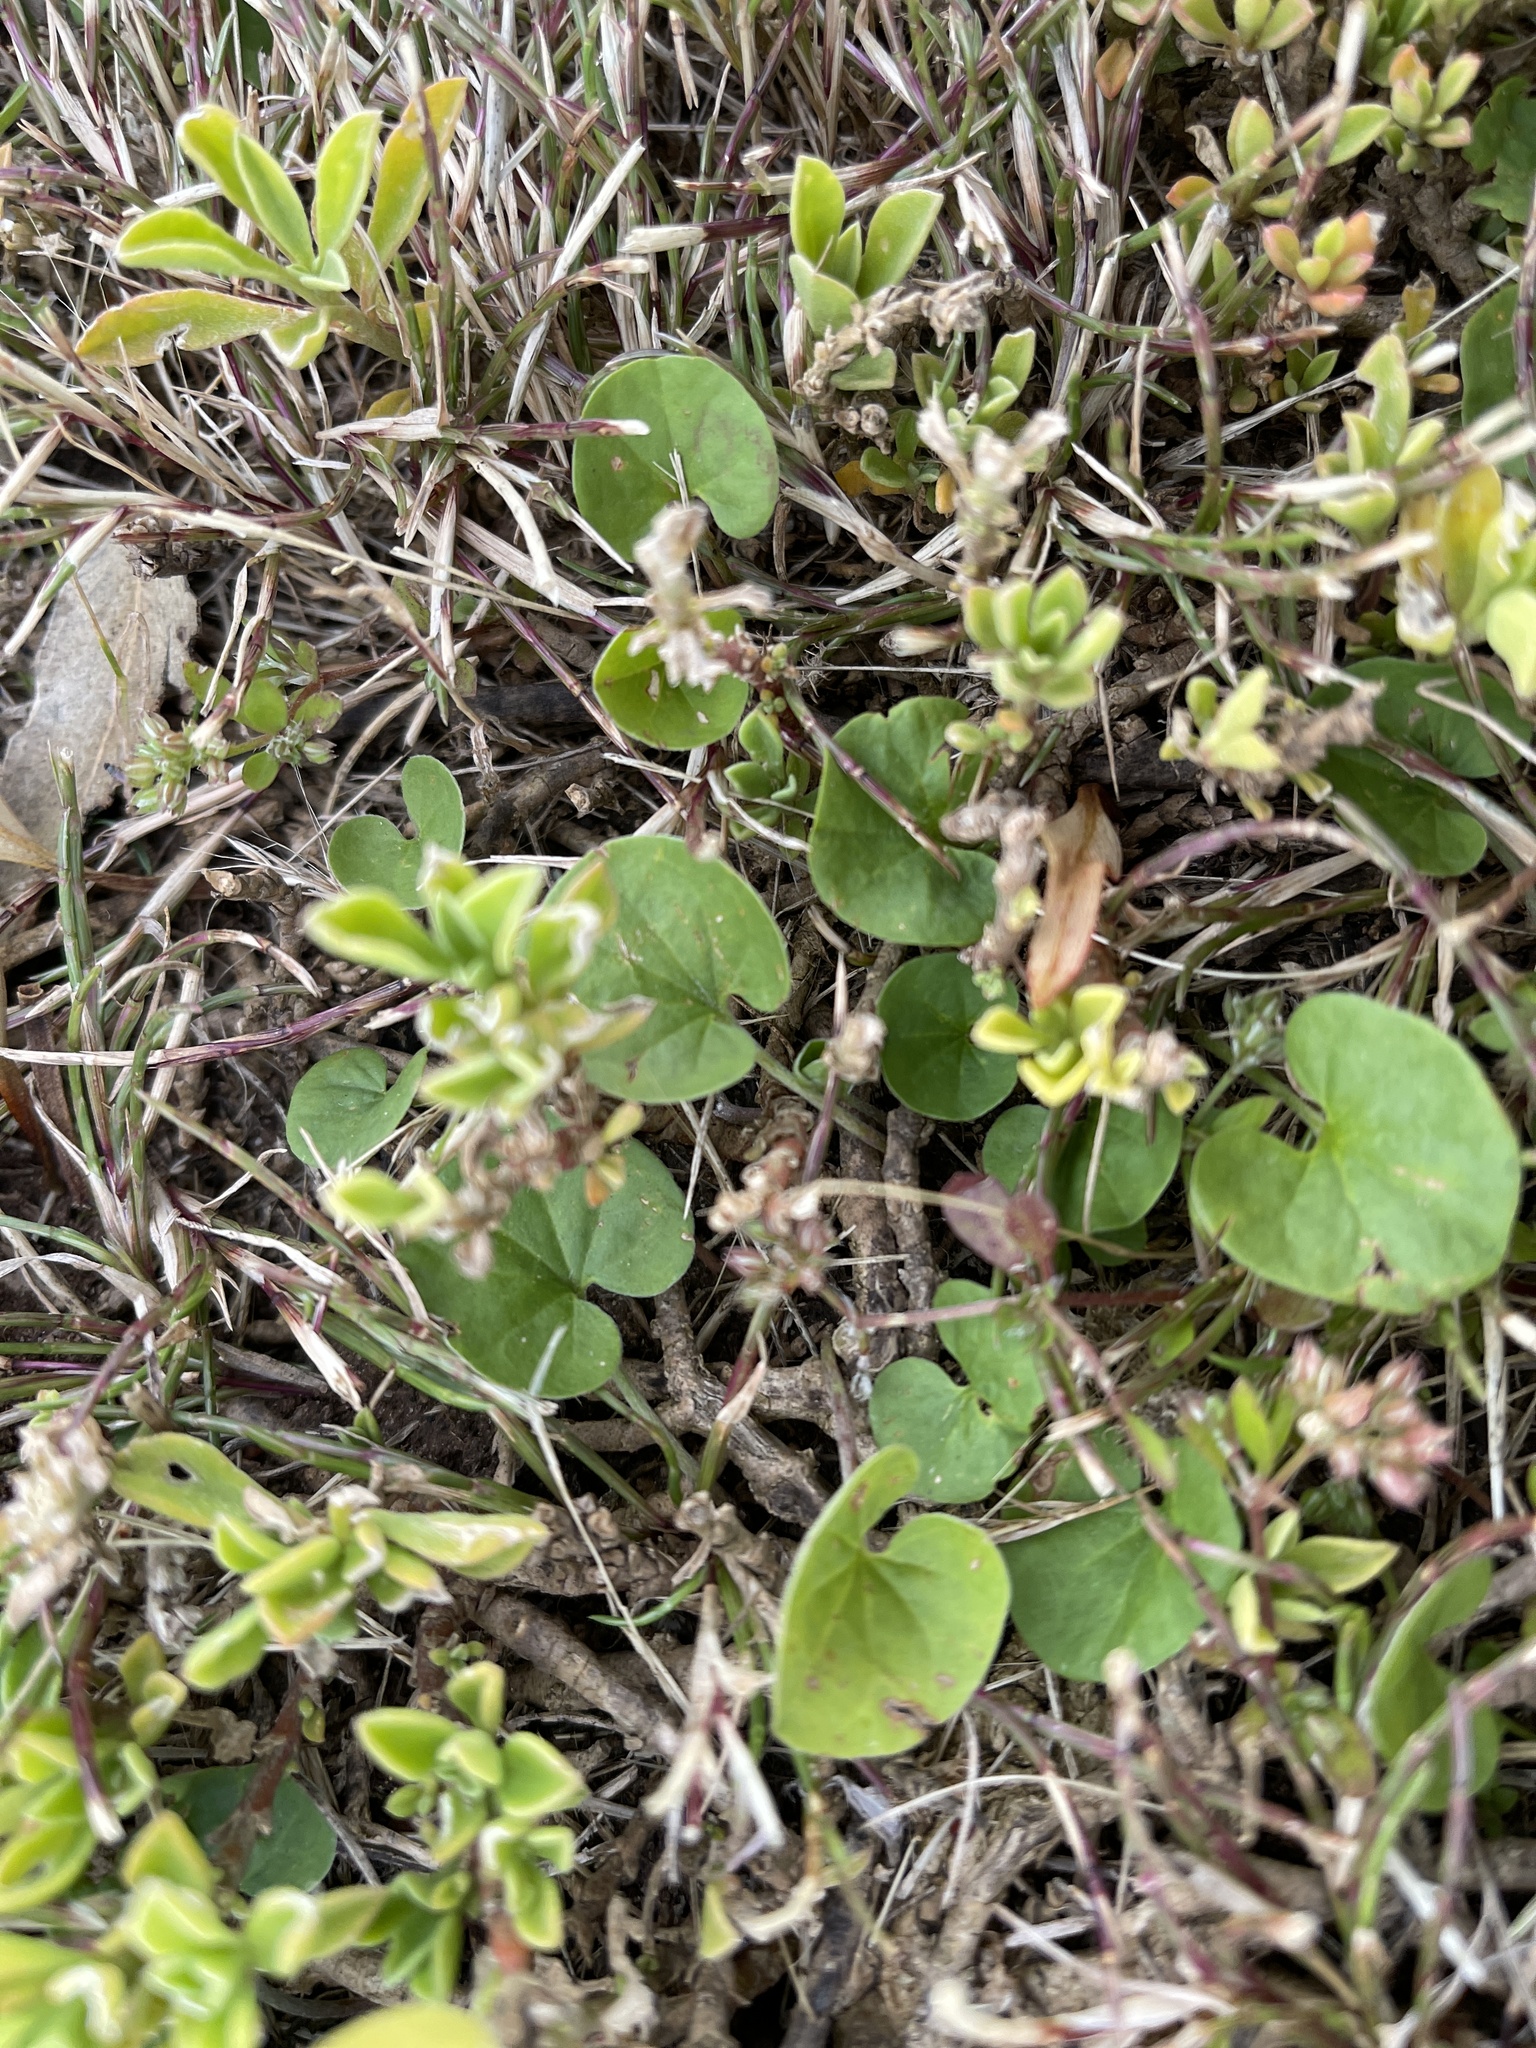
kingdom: Plantae
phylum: Tracheophyta
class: Magnoliopsida
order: Solanales
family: Convolvulaceae
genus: Dichondra
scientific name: Dichondra repens
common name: Kidneyweed
